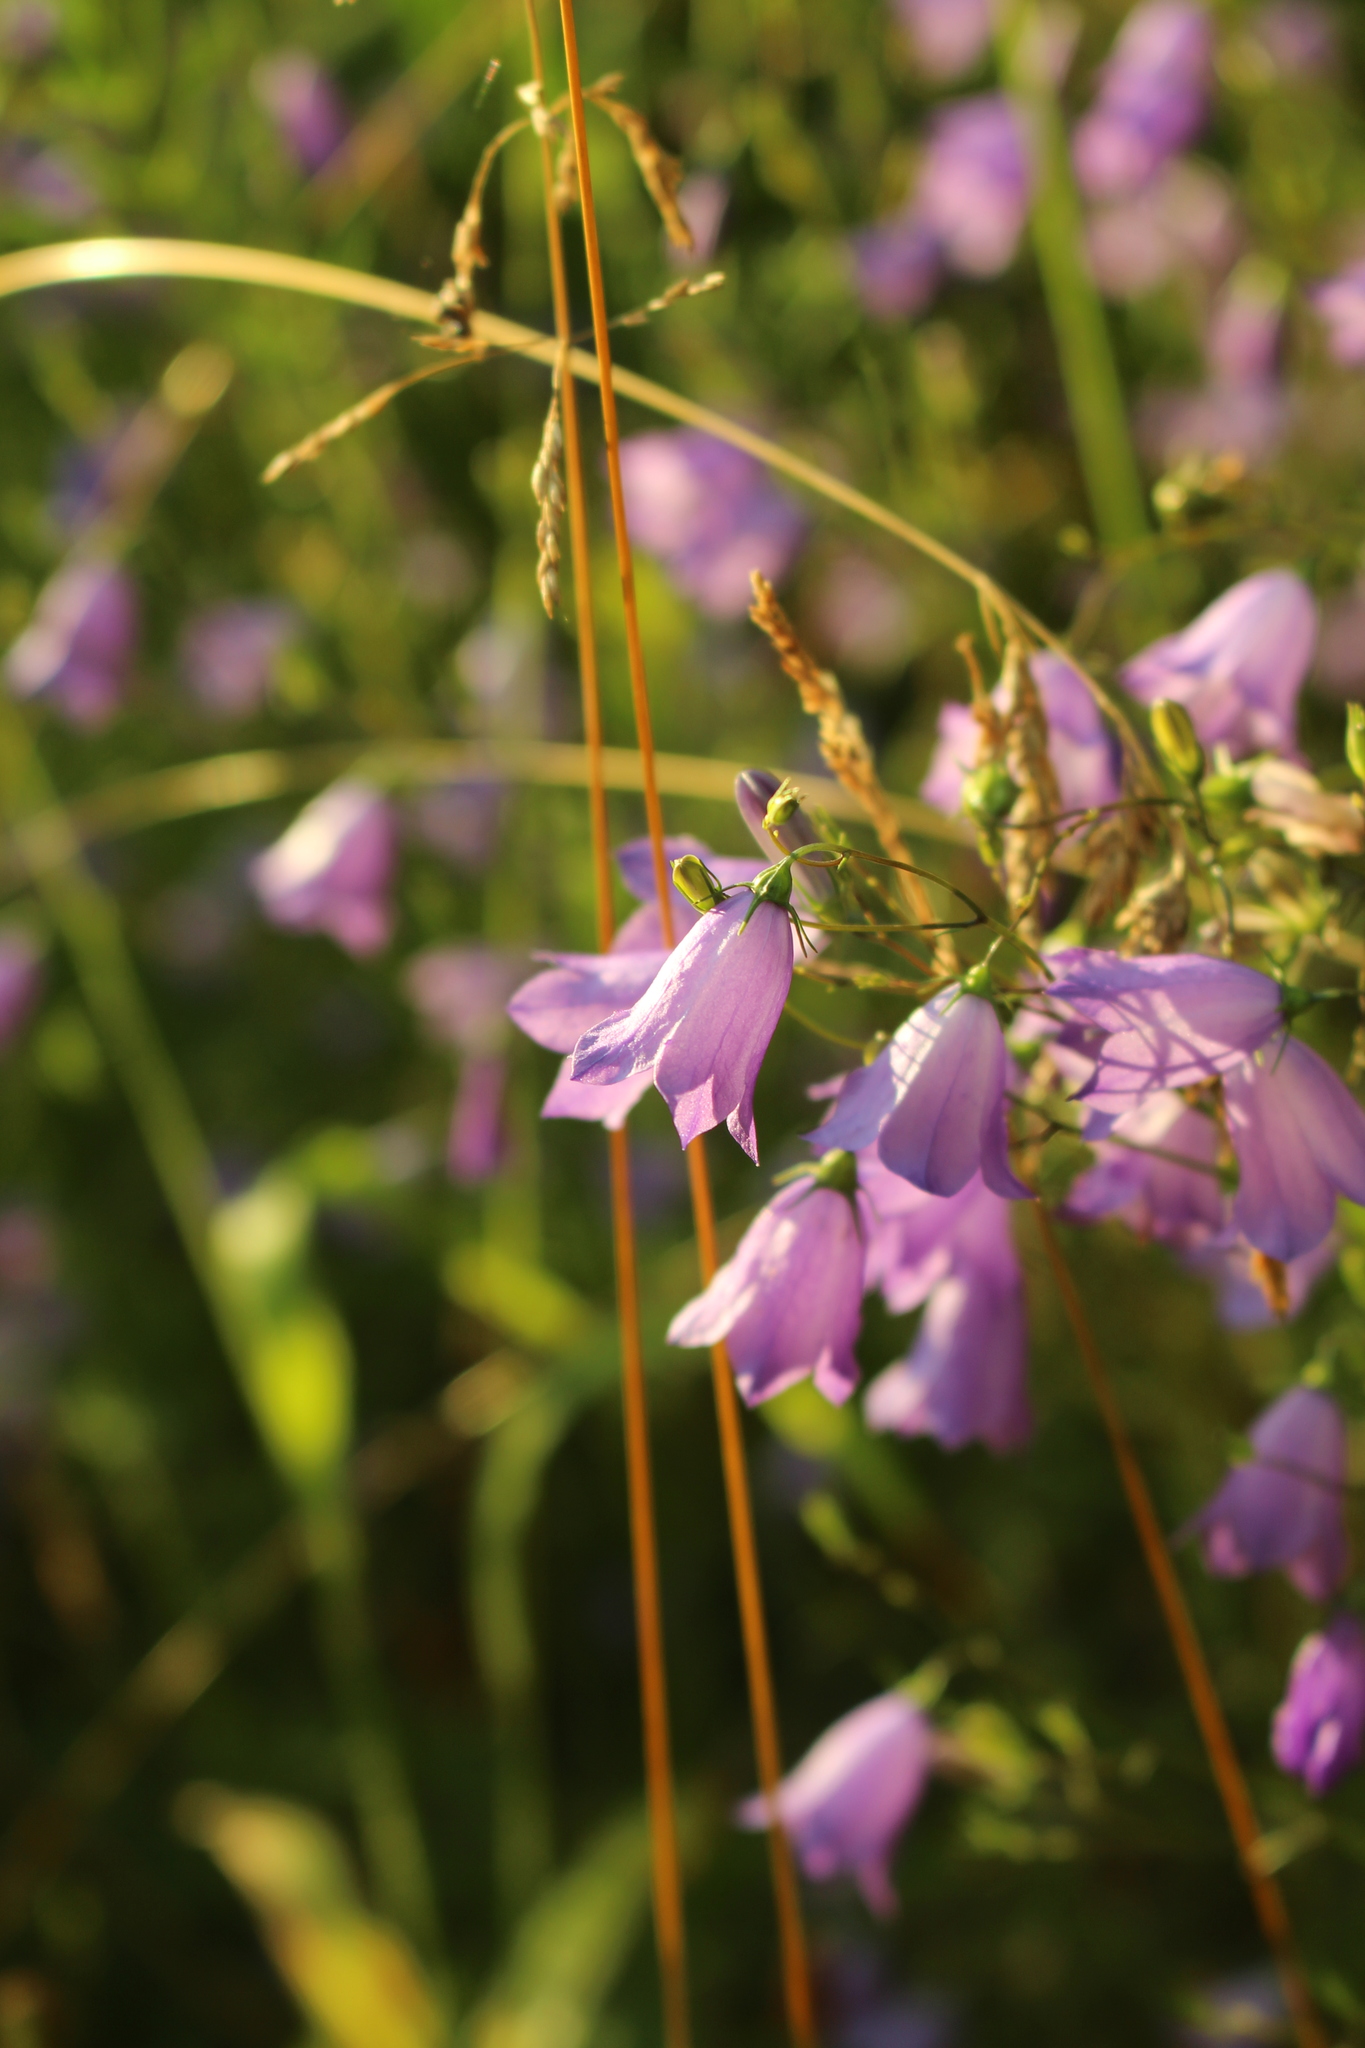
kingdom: Plantae
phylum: Tracheophyta
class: Magnoliopsida
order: Asterales
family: Campanulaceae
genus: Campanula
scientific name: Campanula rotundifolia
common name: Harebell
